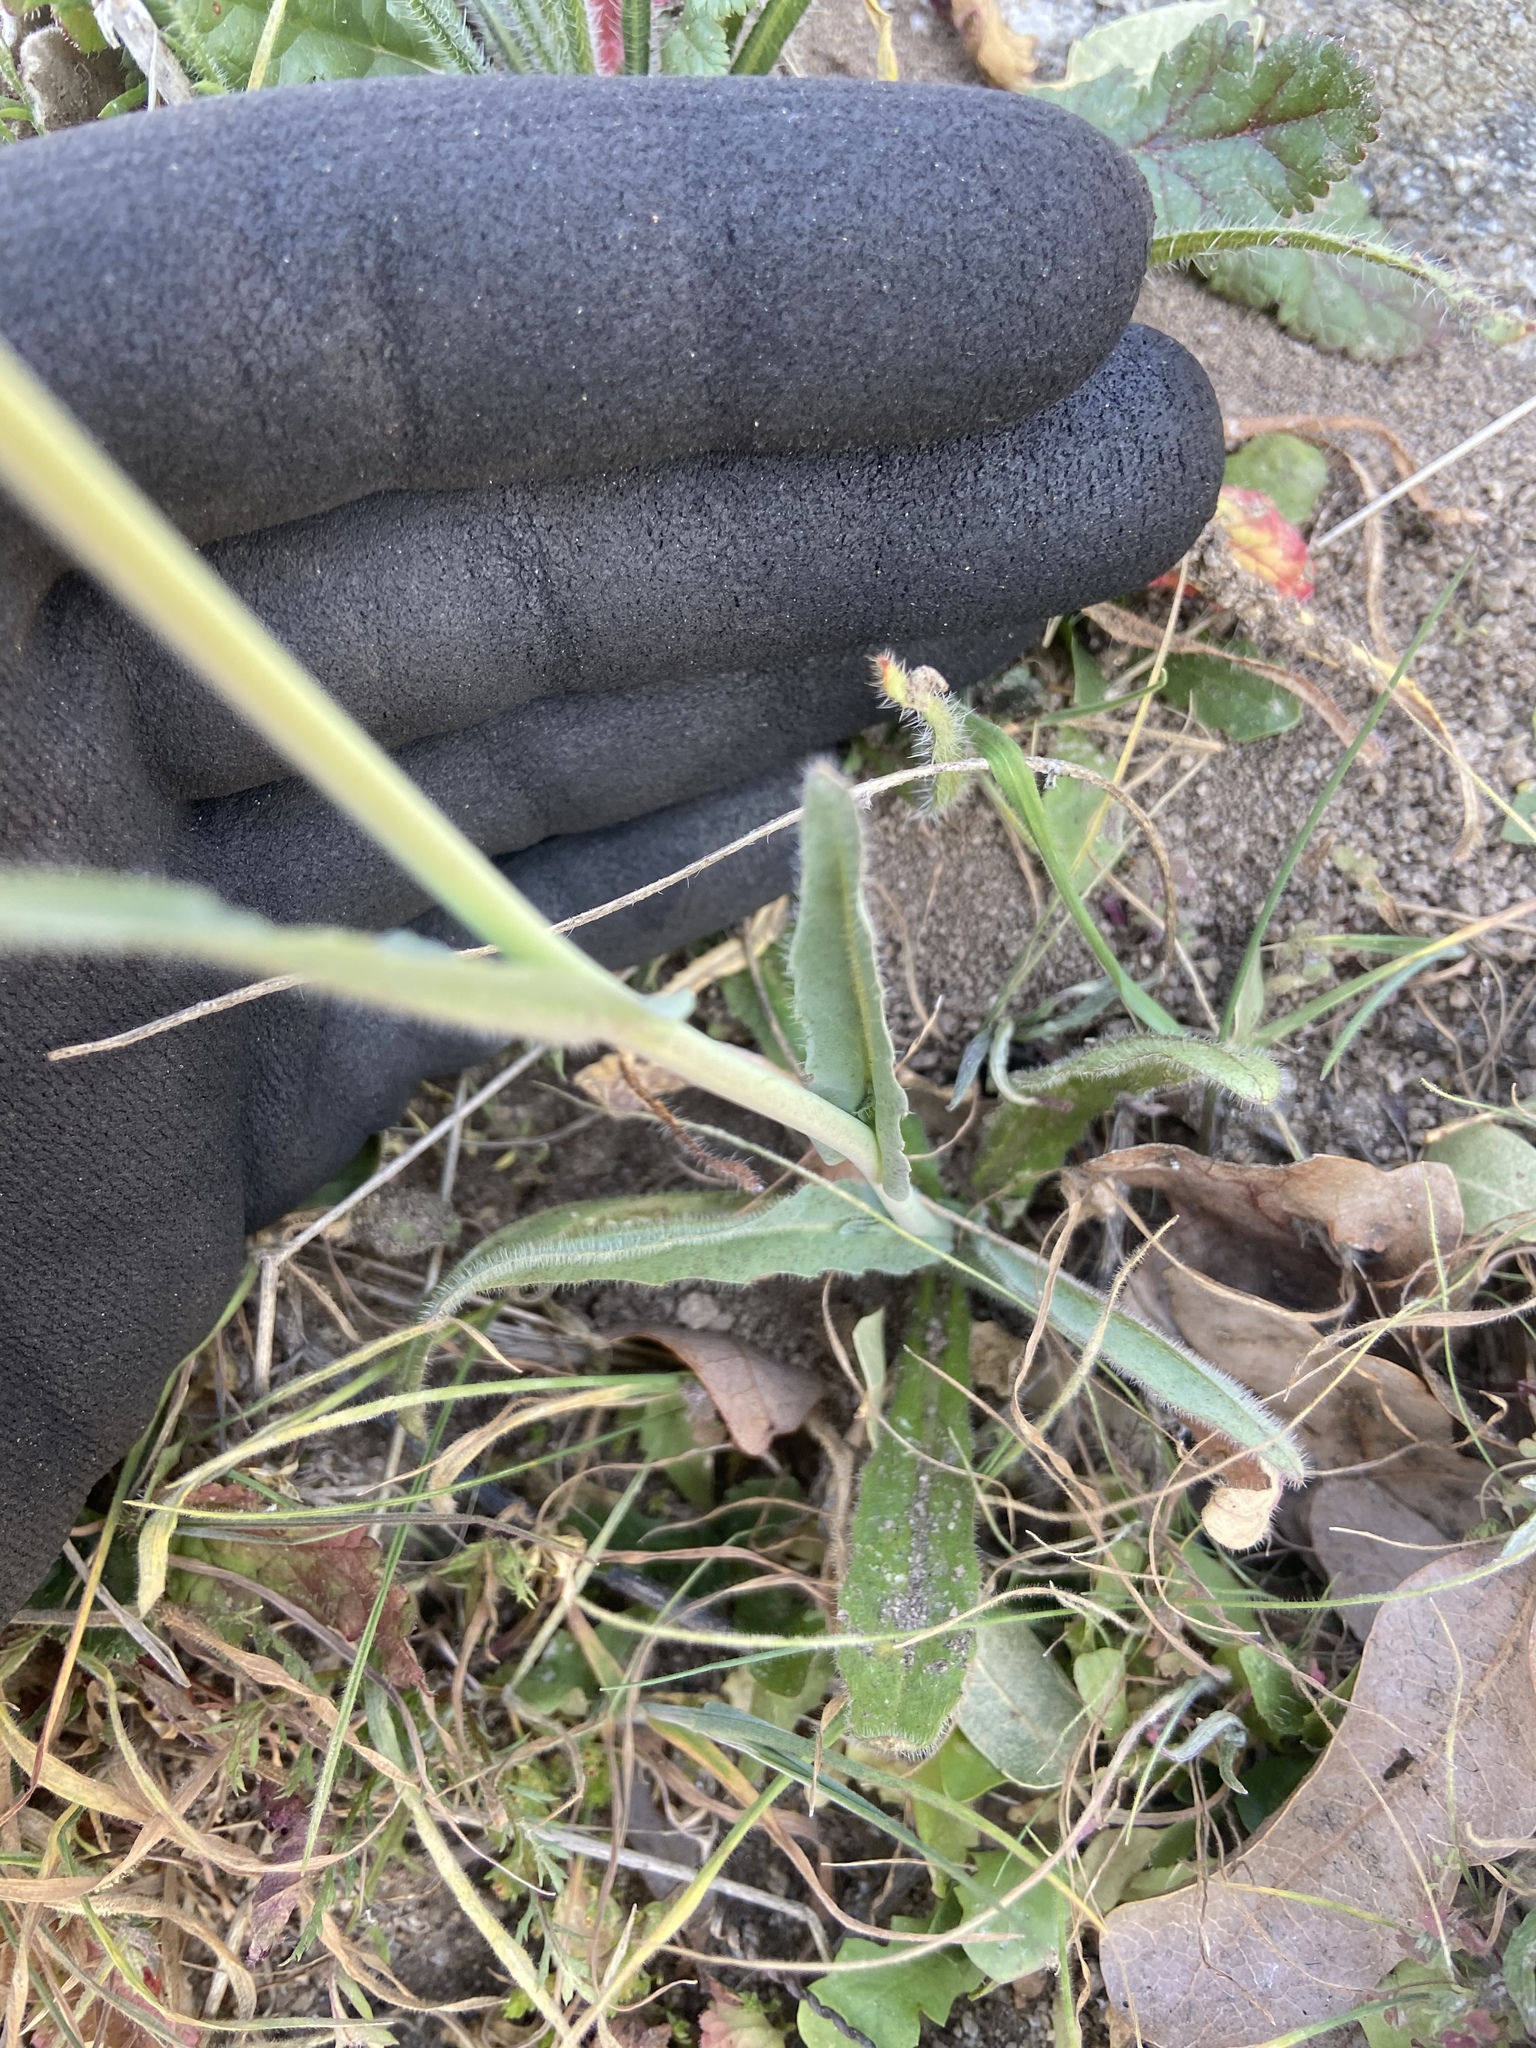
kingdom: Plantae
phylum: Tracheophyta
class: Magnoliopsida
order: Brassicales
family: Brassicaceae
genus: Thysanocarpus
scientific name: Thysanocarpus curvipes
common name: Sand fringepod
